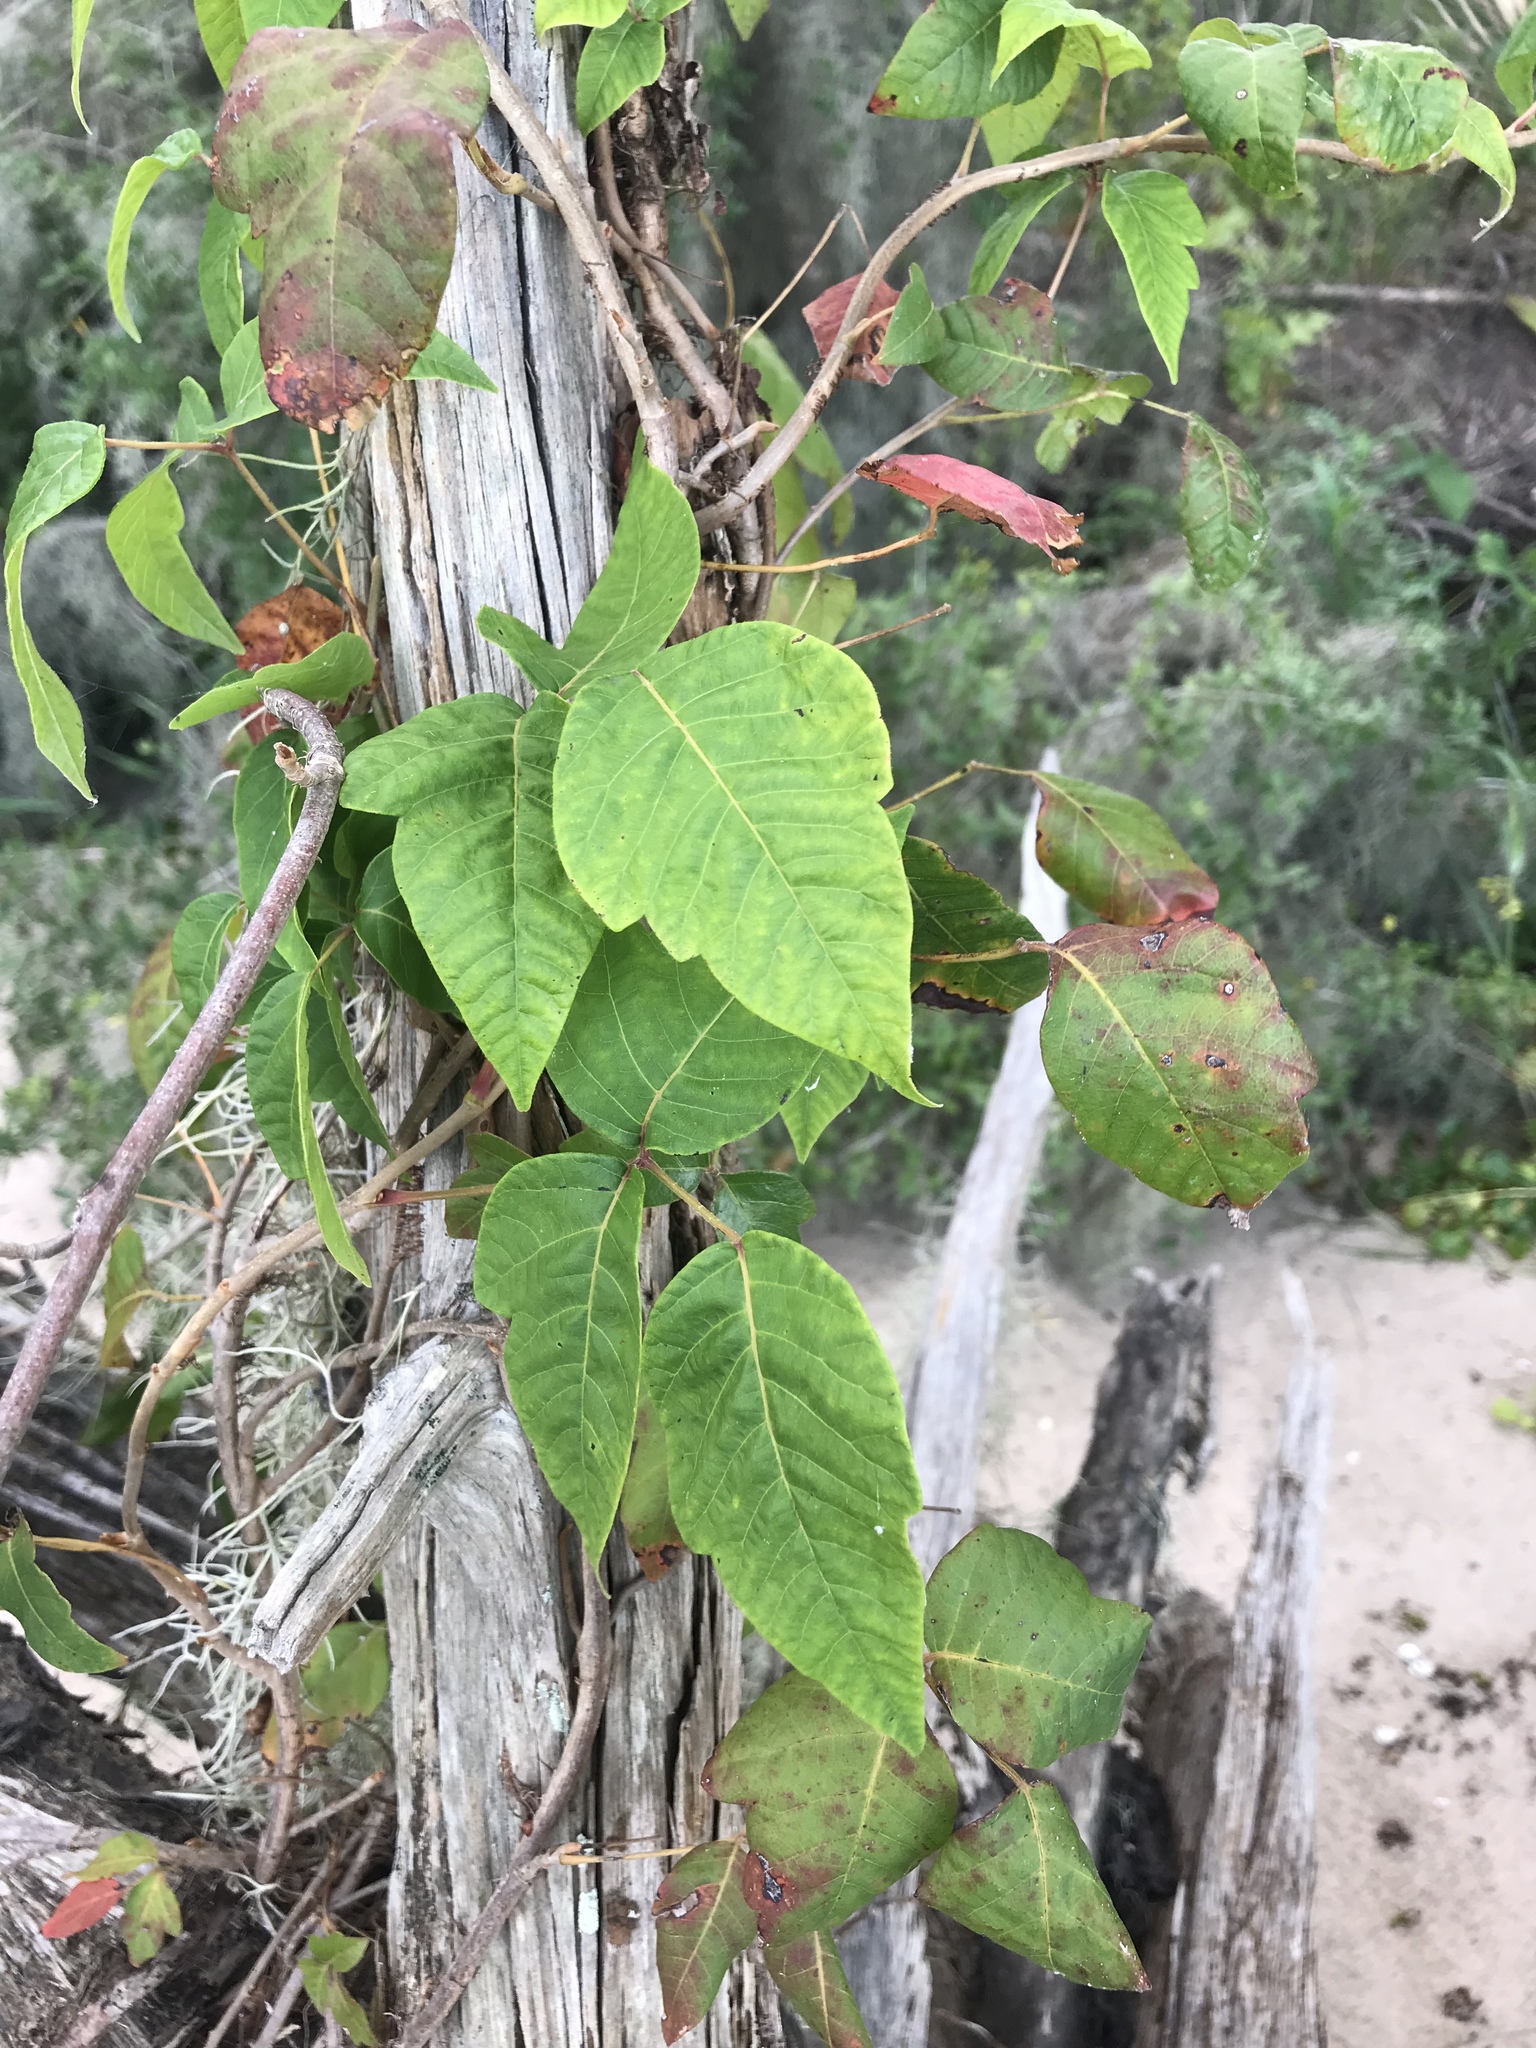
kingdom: Plantae
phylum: Tracheophyta
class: Magnoliopsida
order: Sapindales
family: Anacardiaceae
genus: Toxicodendron
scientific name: Toxicodendron radicans
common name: Poison ivy
